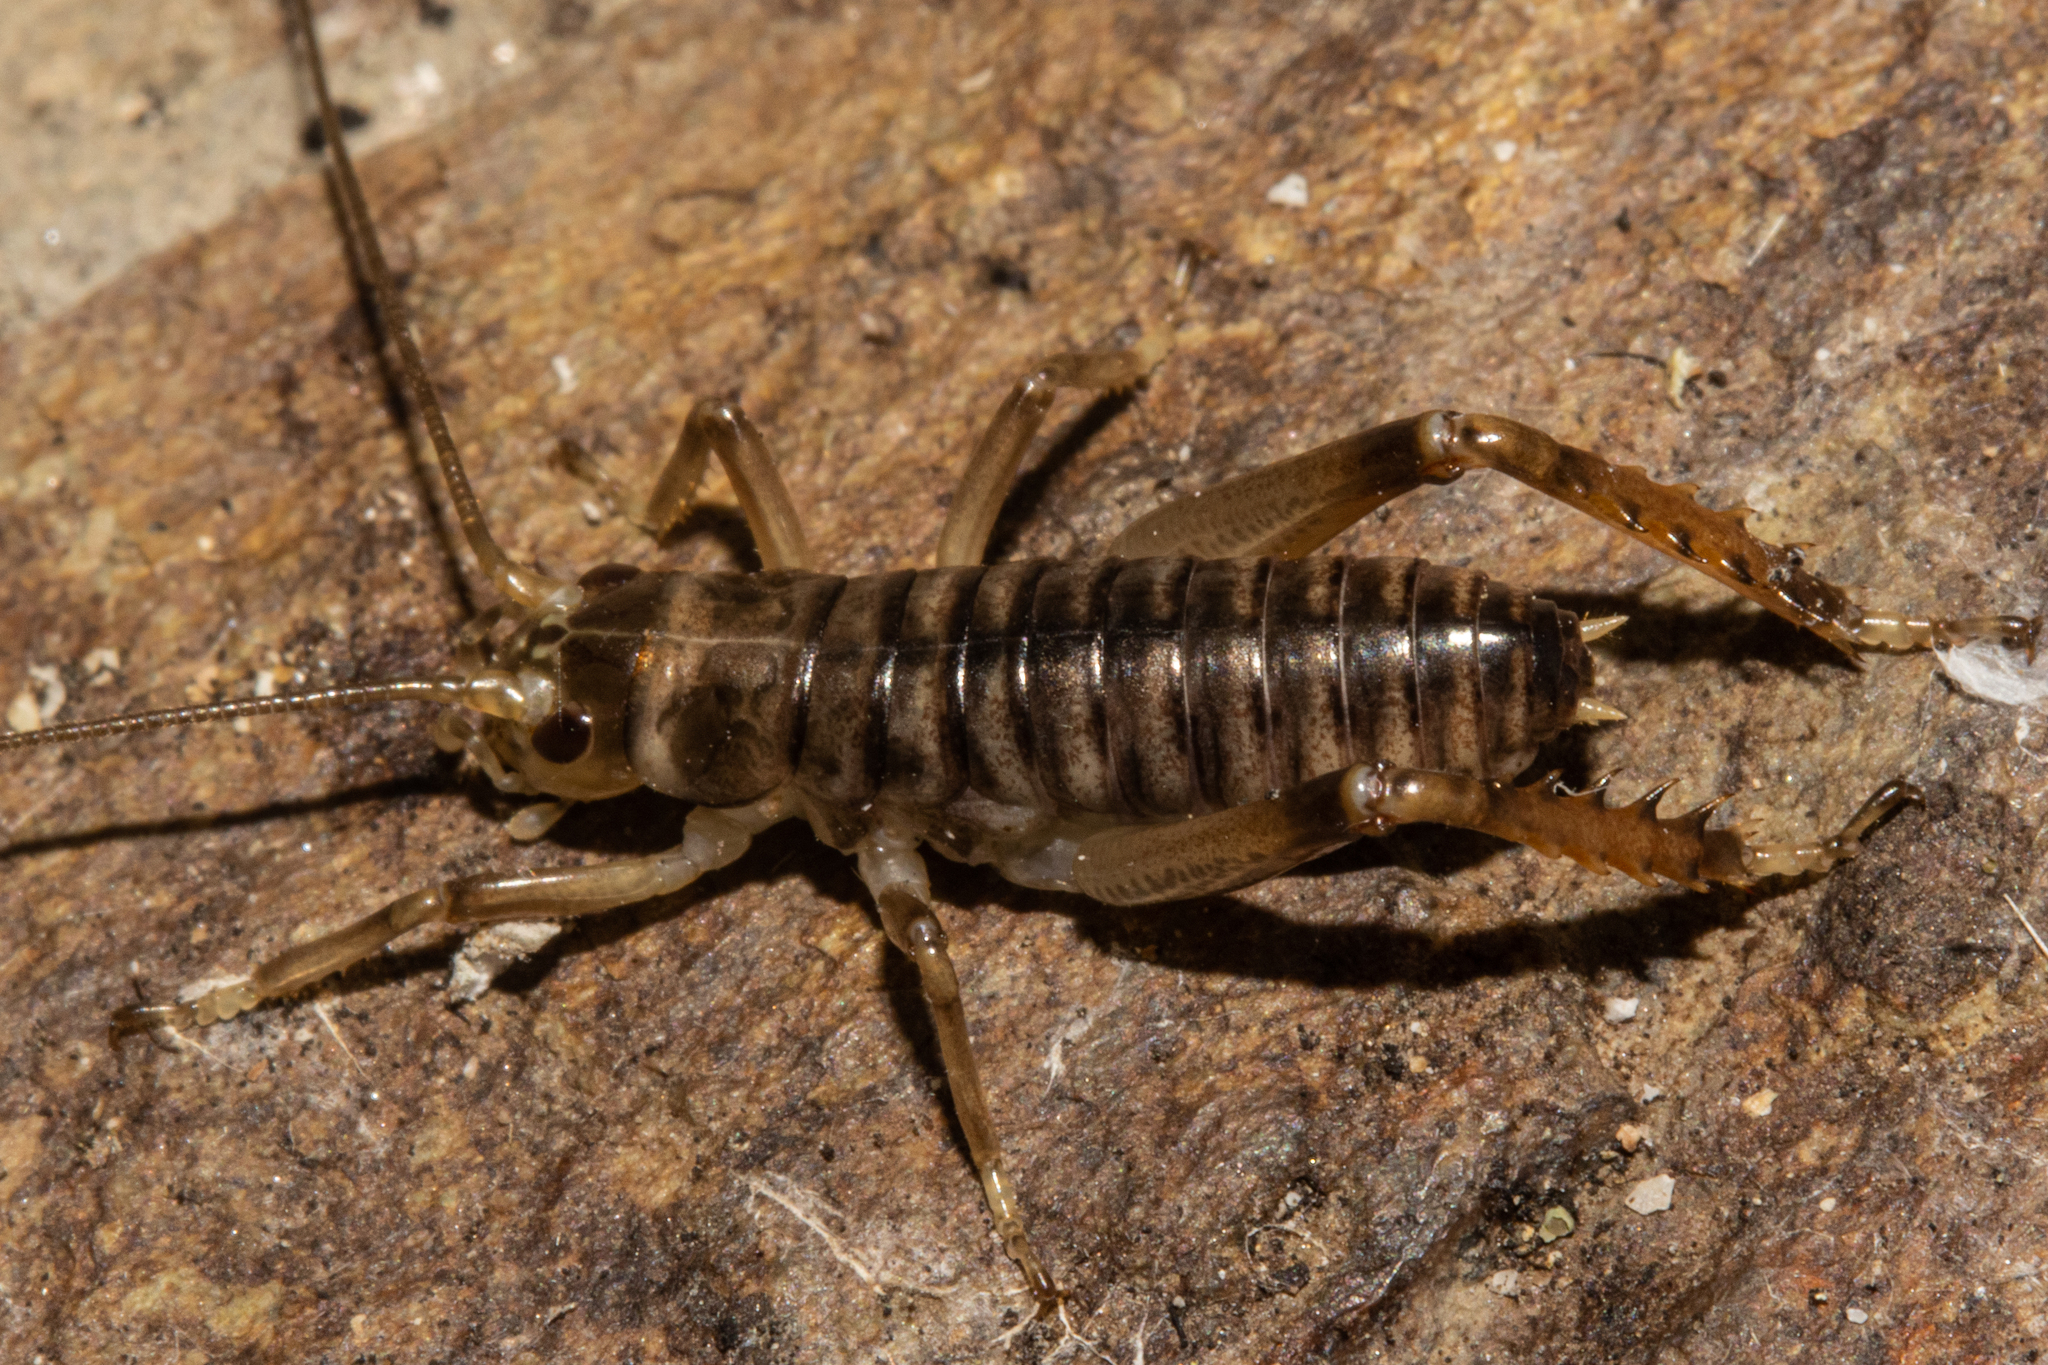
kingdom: Animalia
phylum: Arthropoda
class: Insecta
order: Orthoptera
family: Anostostomatidae
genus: Hemideina
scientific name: Hemideina maori
